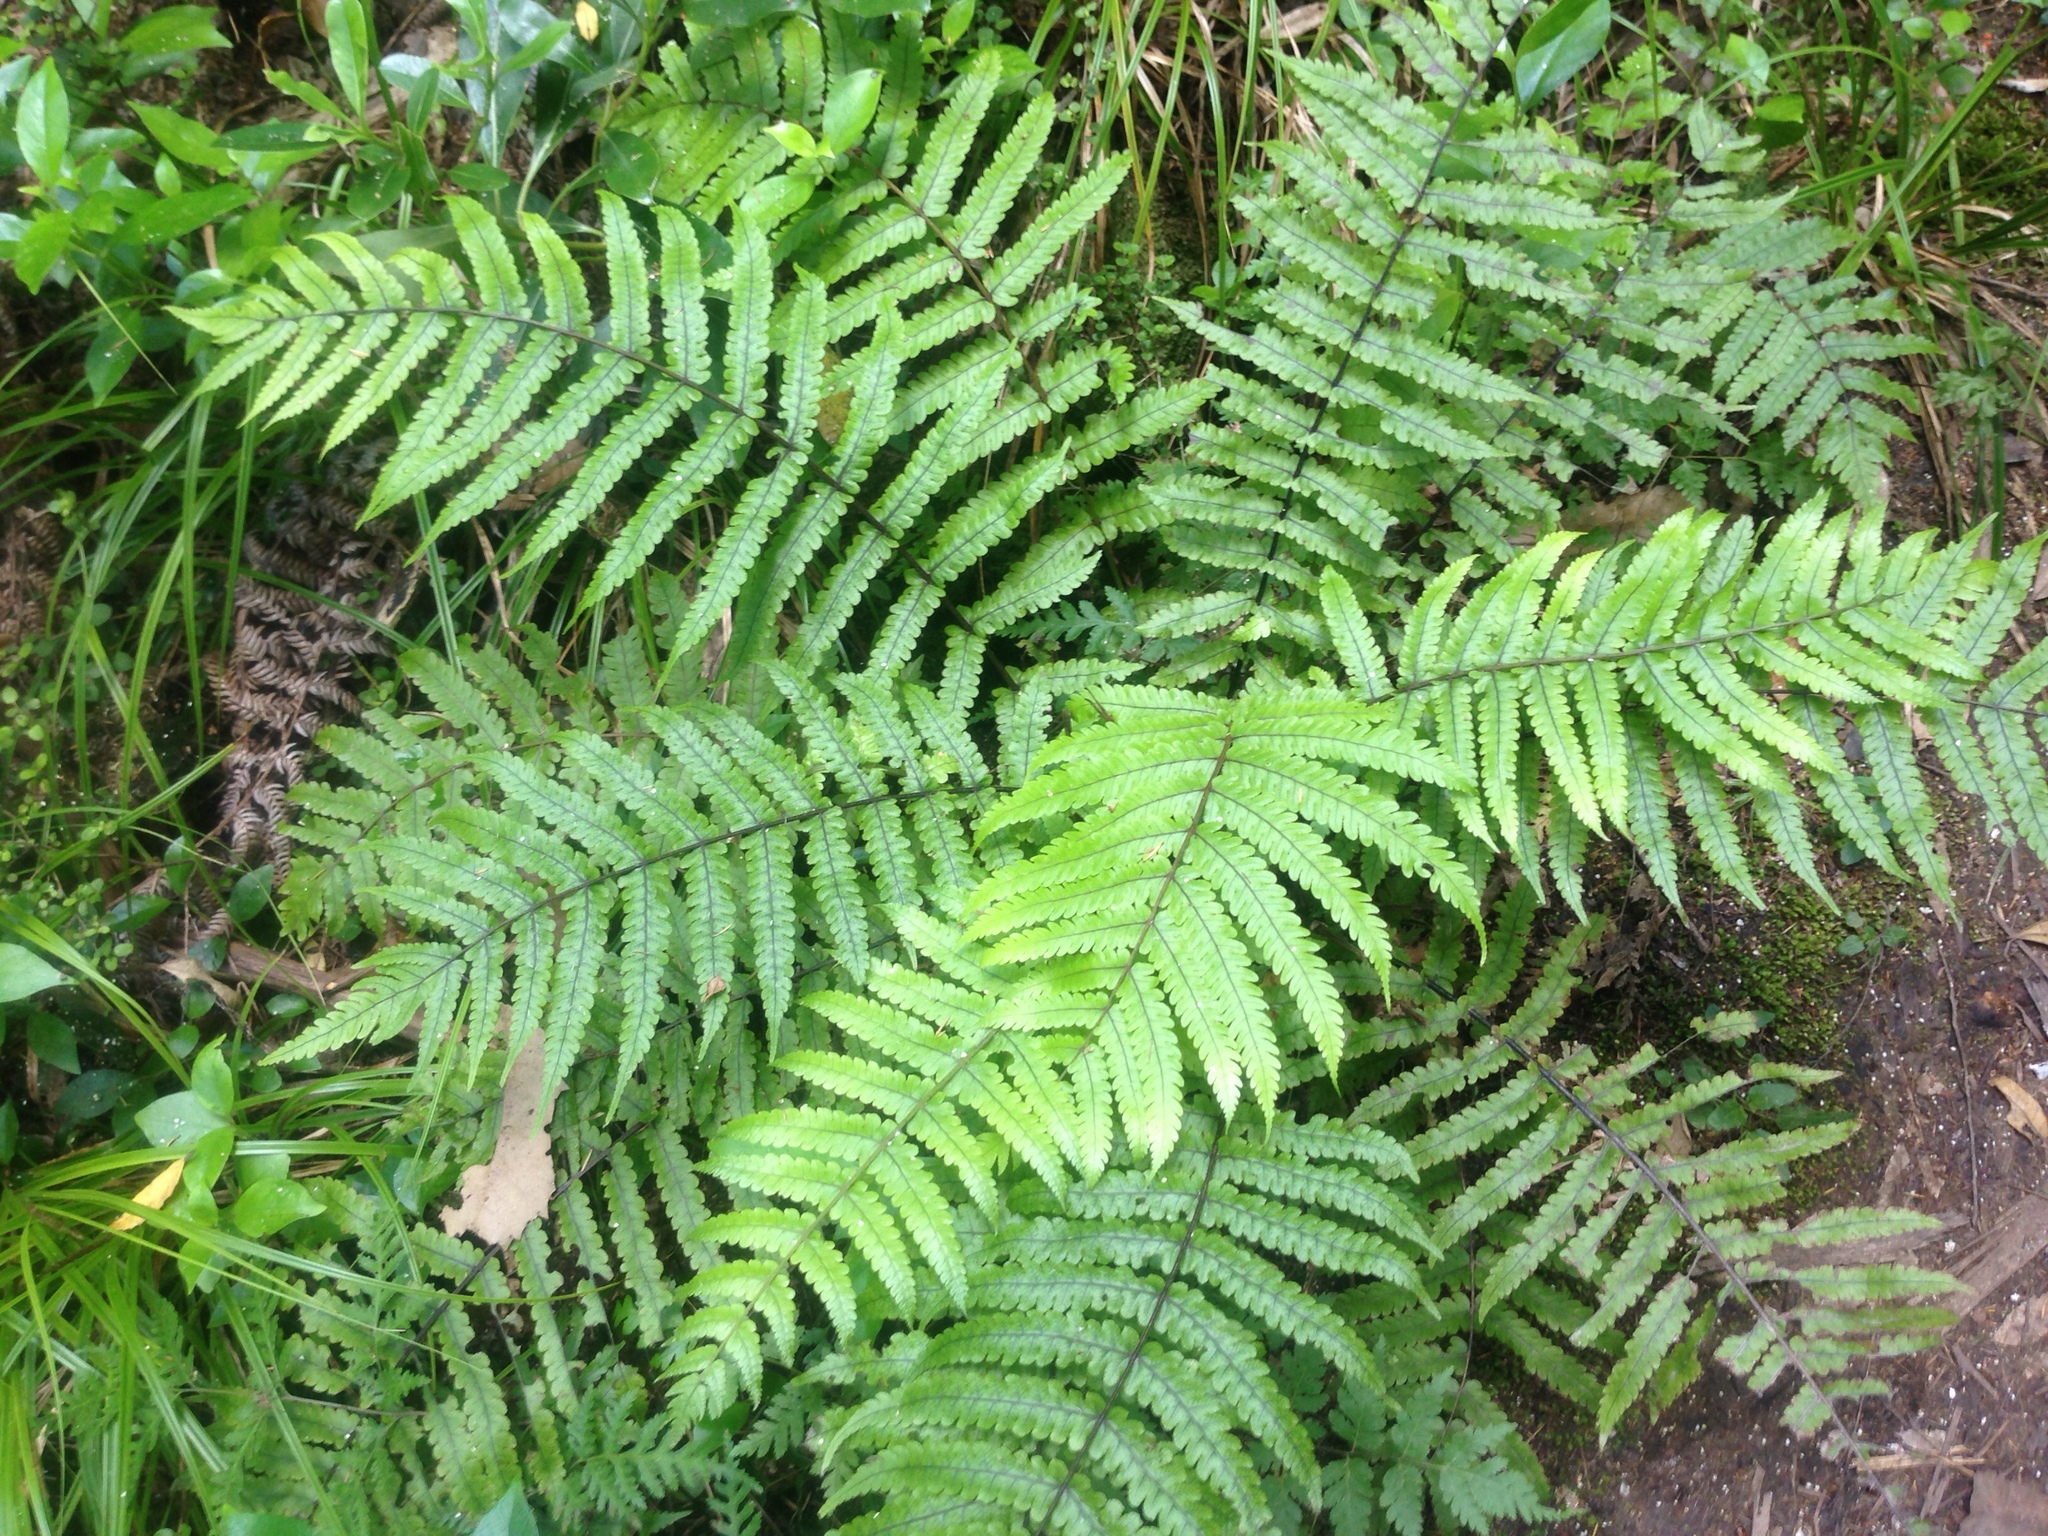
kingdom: Plantae
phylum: Tracheophyta
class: Polypodiopsida
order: Polypodiales
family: Thelypteridaceae
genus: Pakau
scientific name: Pakau pennigera
